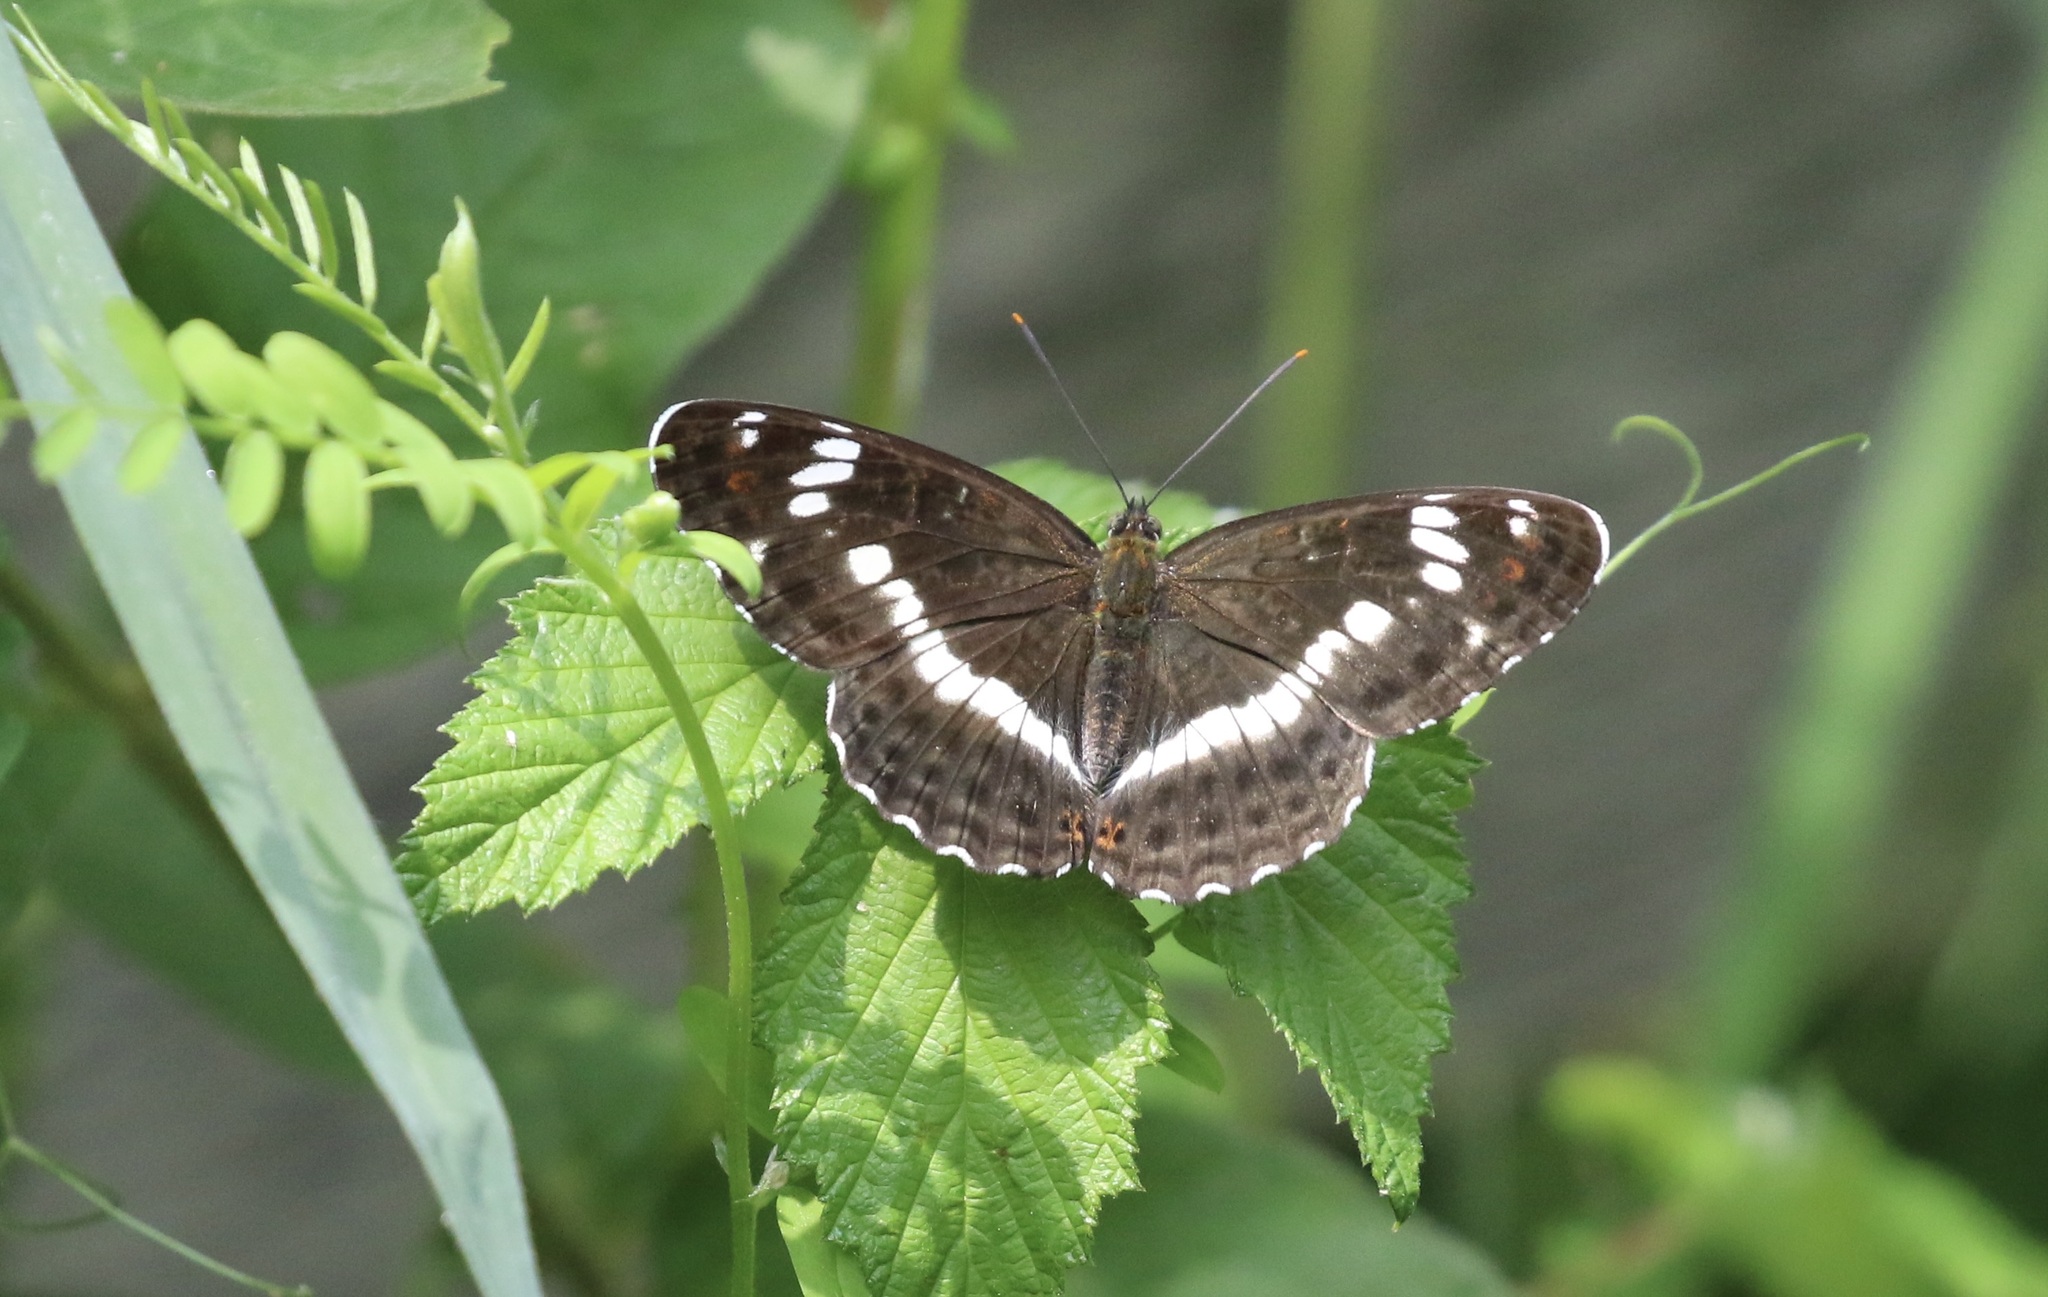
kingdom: Animalia
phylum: Arthropoda
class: Insecta
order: Lepidoptera
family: Nymphalidae
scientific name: Nymphalidae
